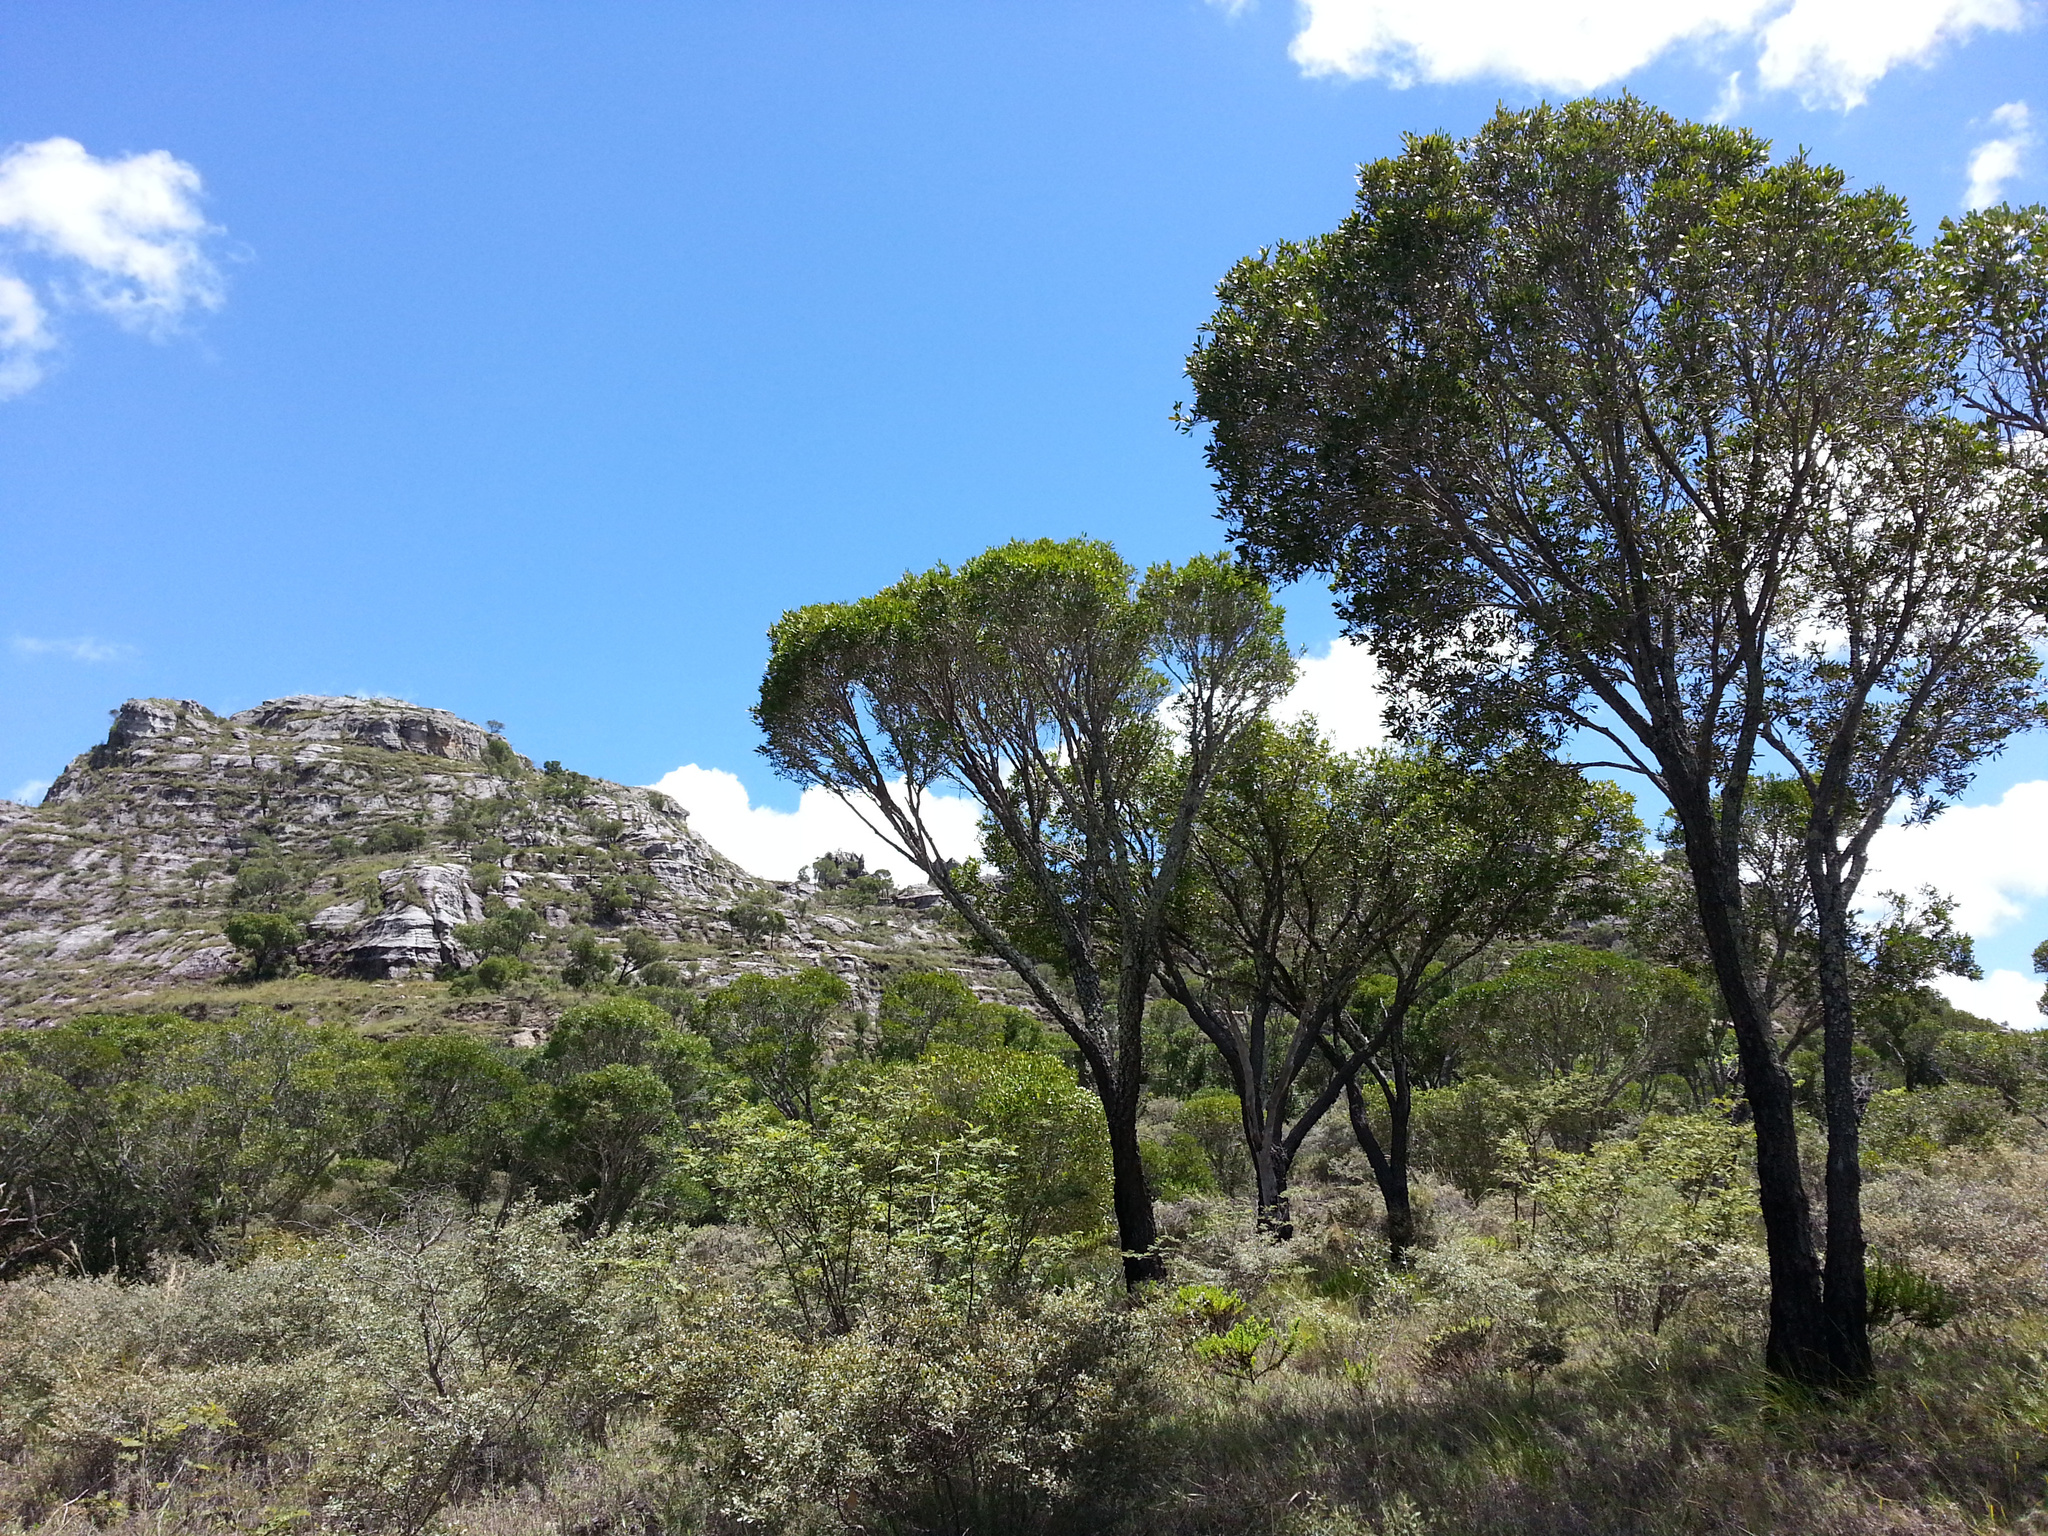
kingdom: Plantae
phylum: Tracheophyta
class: Magnoliopsida
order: Malpighiales
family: Phyllanthaceae
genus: Uapaca
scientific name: Uapaca bojeri
